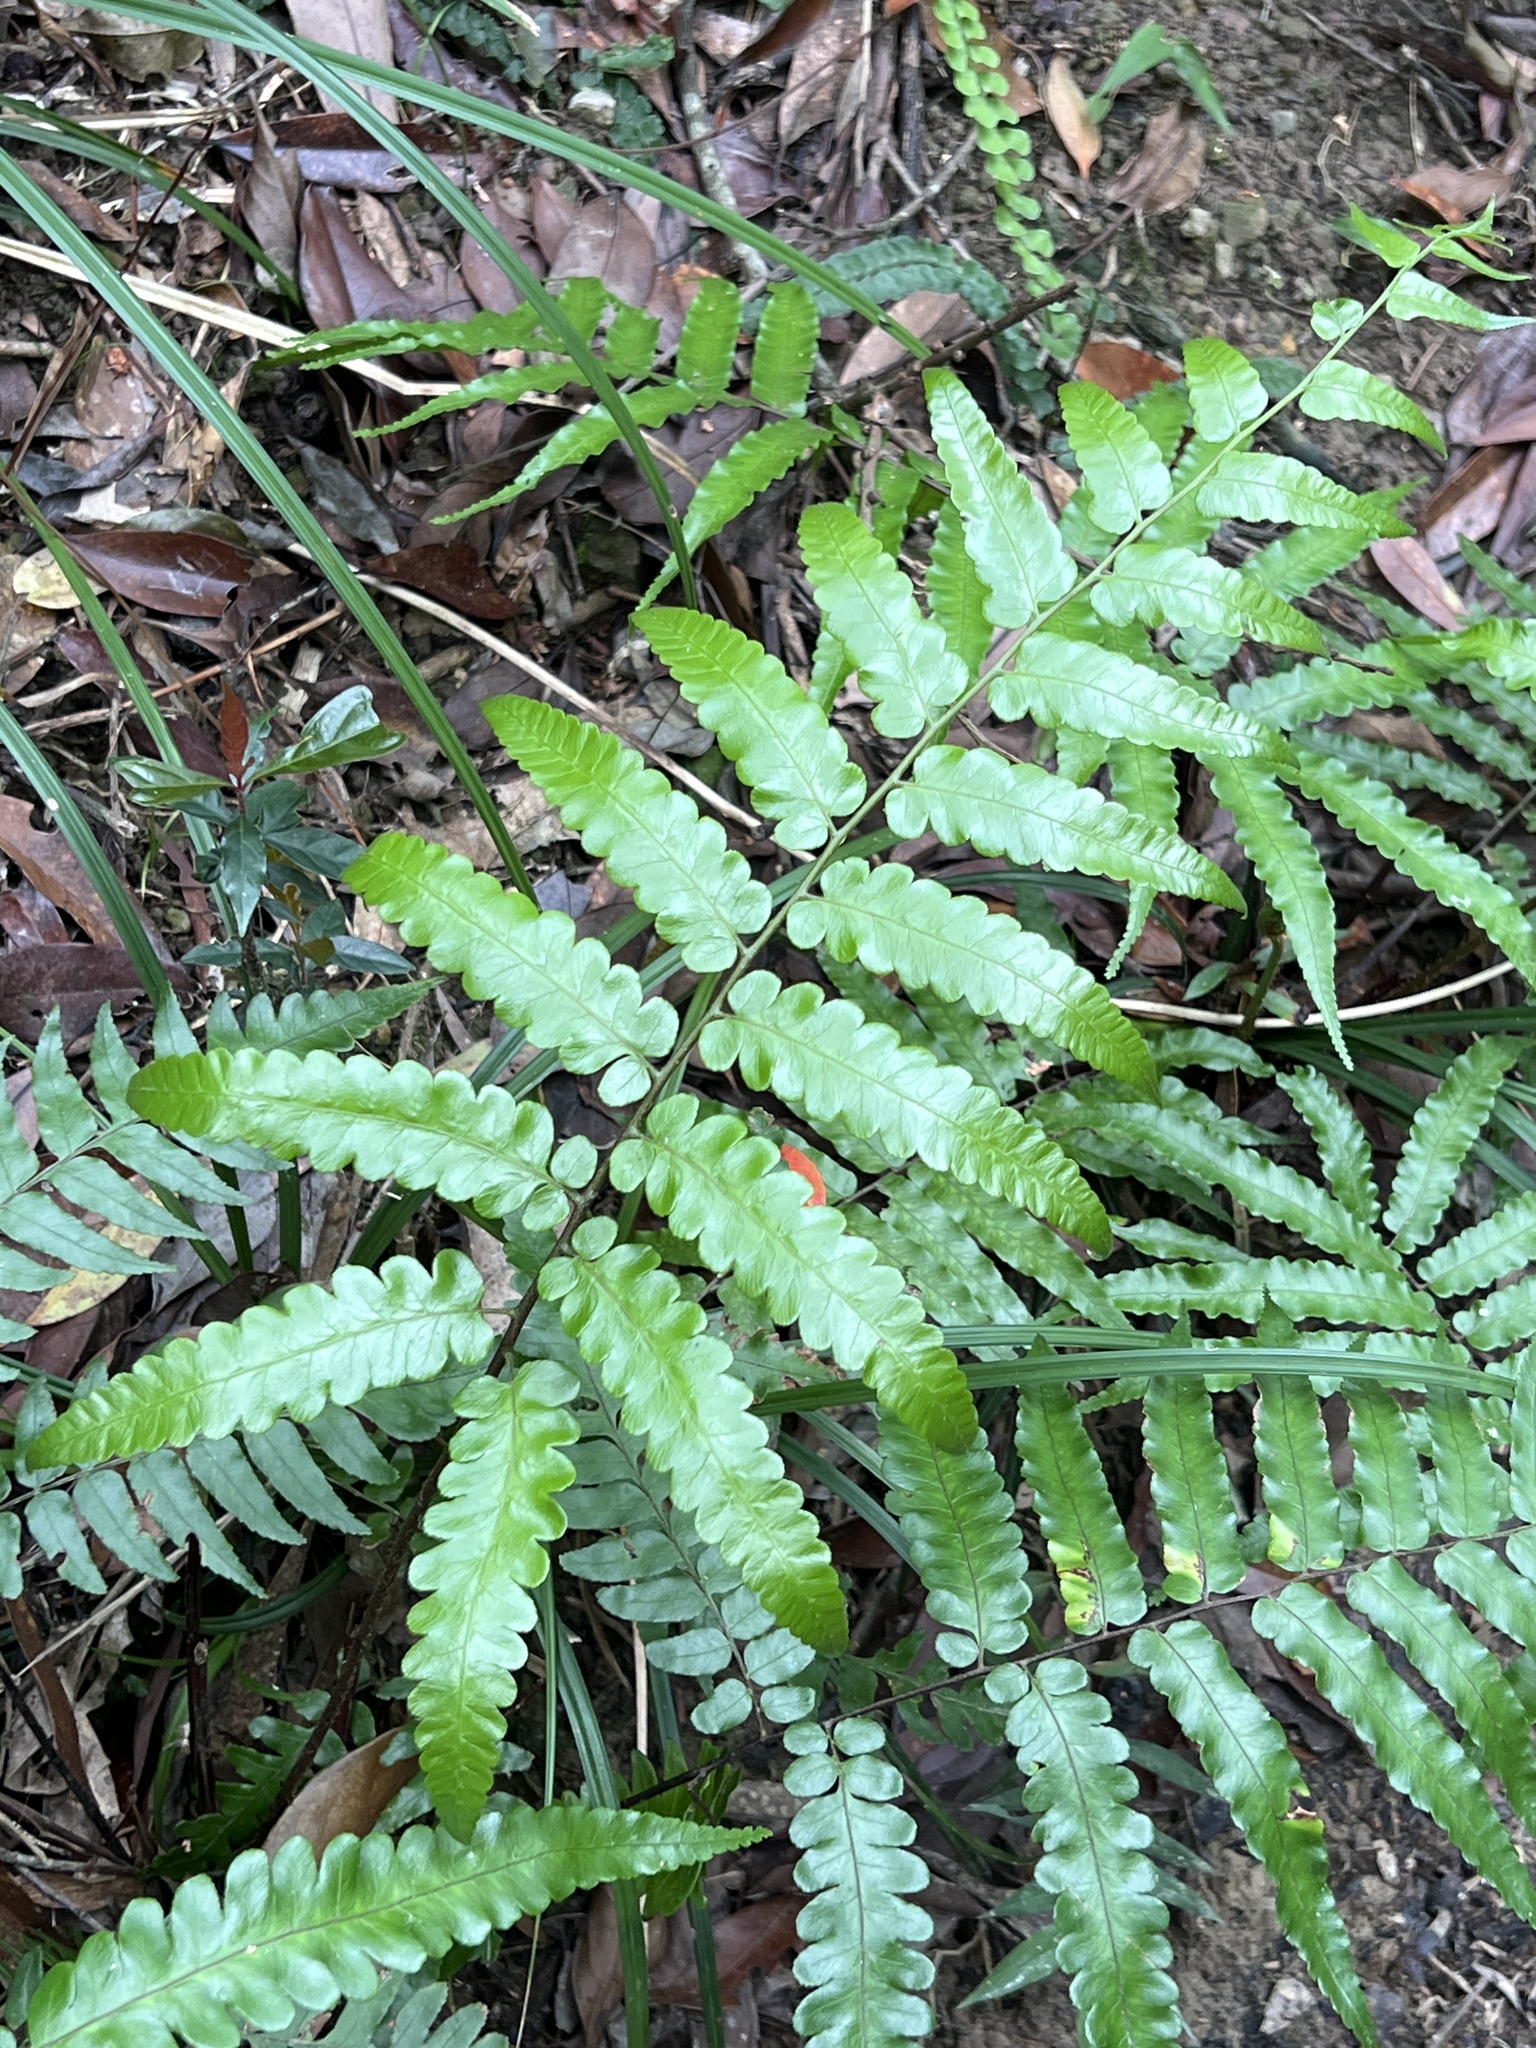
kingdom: Plantae
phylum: Tracheophyta
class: Polypodiopsida
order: Polypodiales
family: Athyriaceae
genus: Diplazium
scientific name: Diplazium dilatatum
